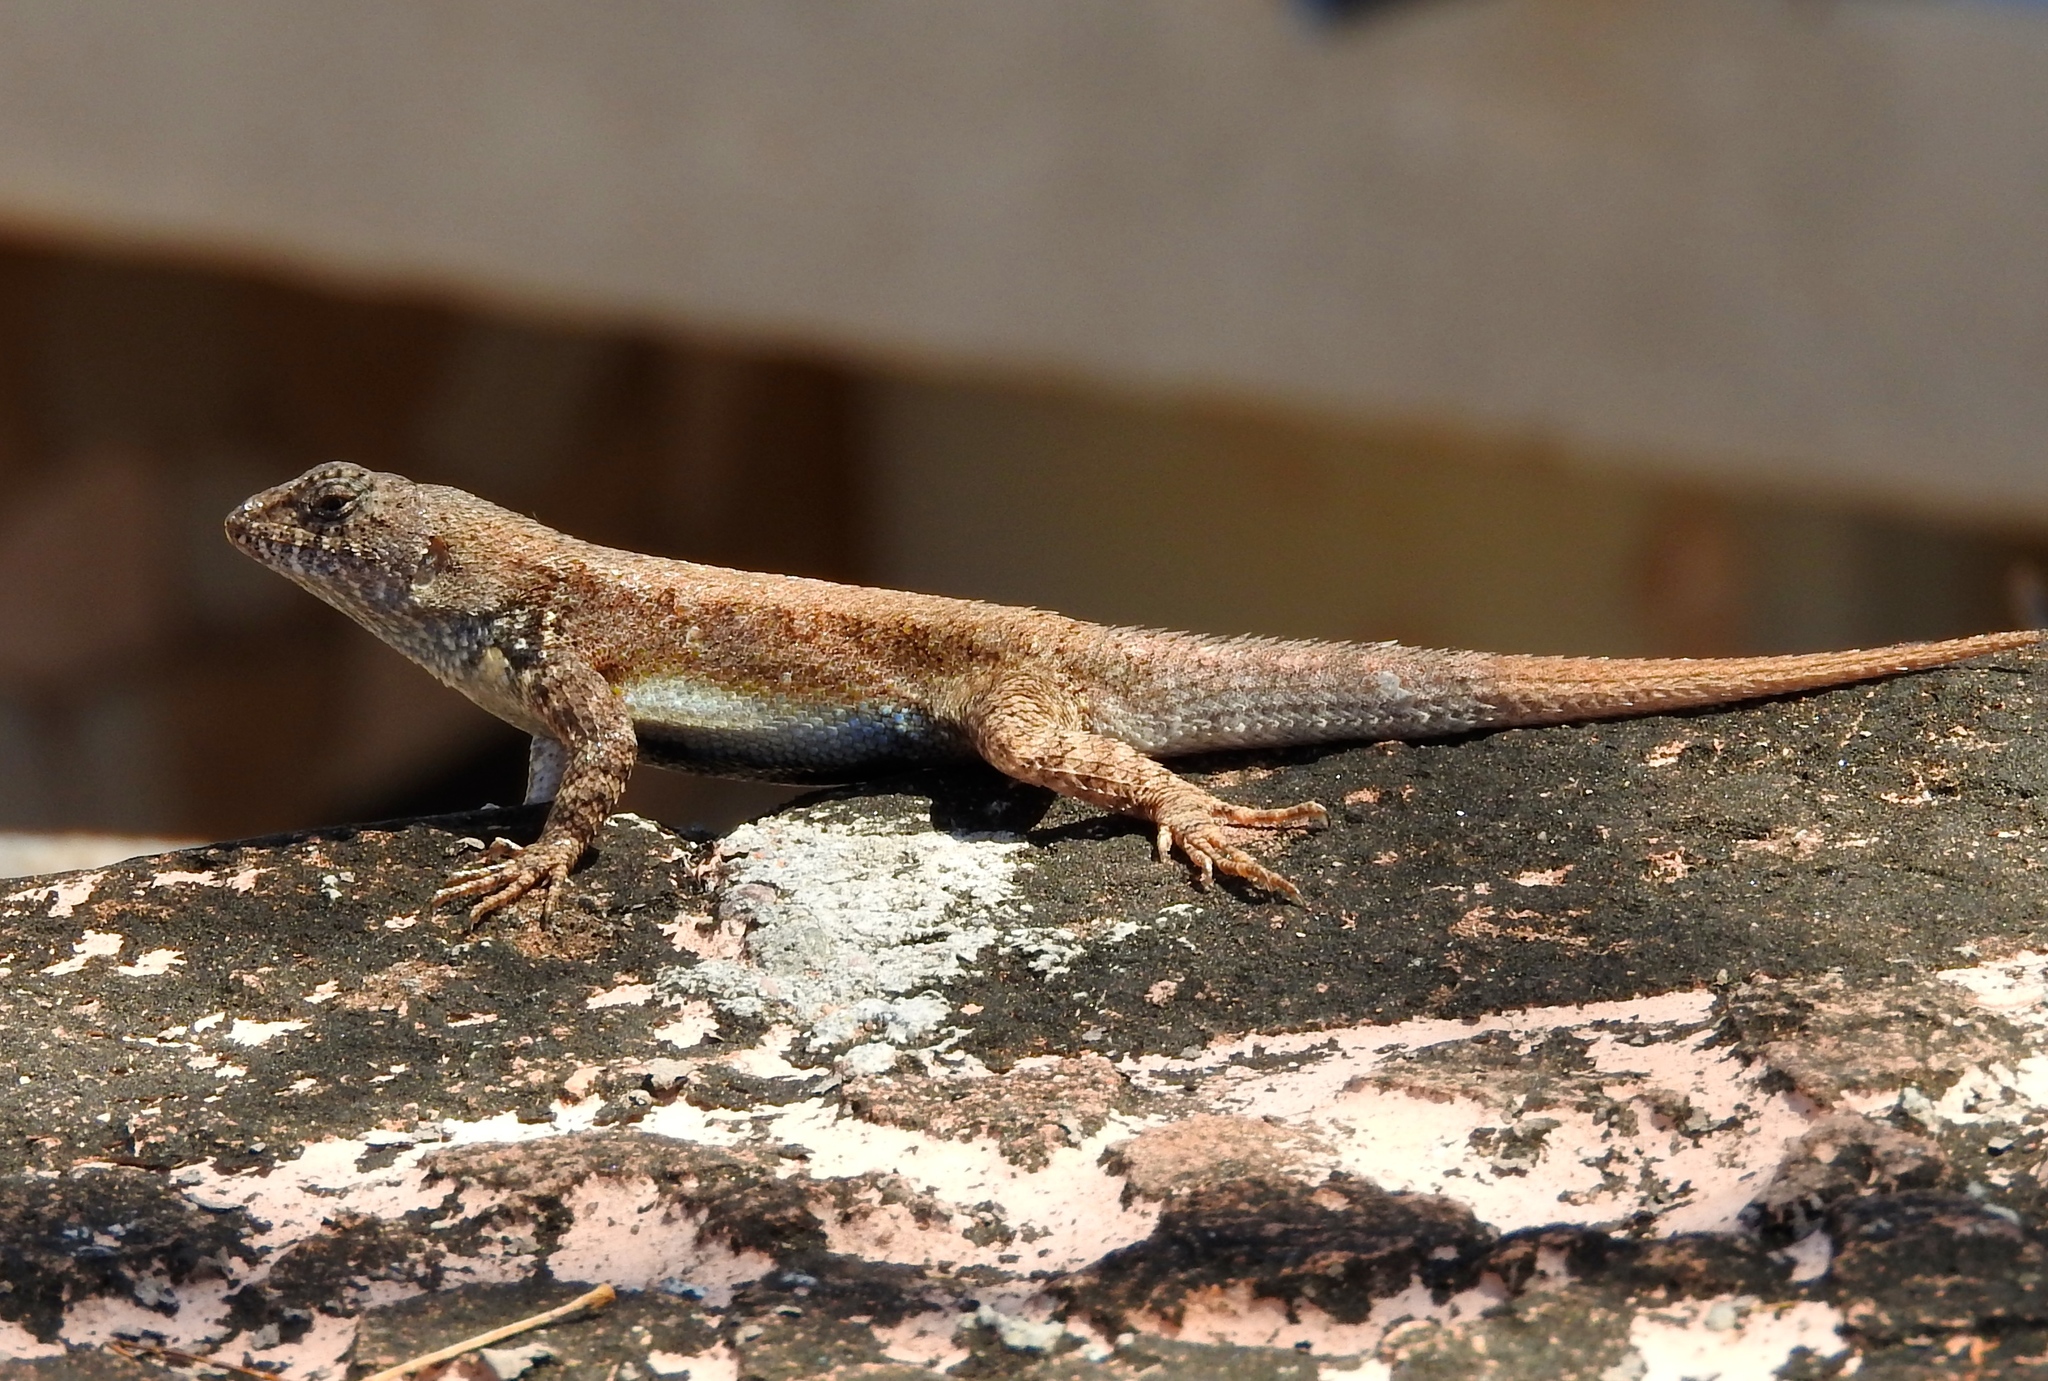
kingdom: Animalia
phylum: Chordata
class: Squamata
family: Phrynosomatidae
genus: Sceloporus
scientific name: Sceloporus nelsoni
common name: Nelson's spiny lizard
